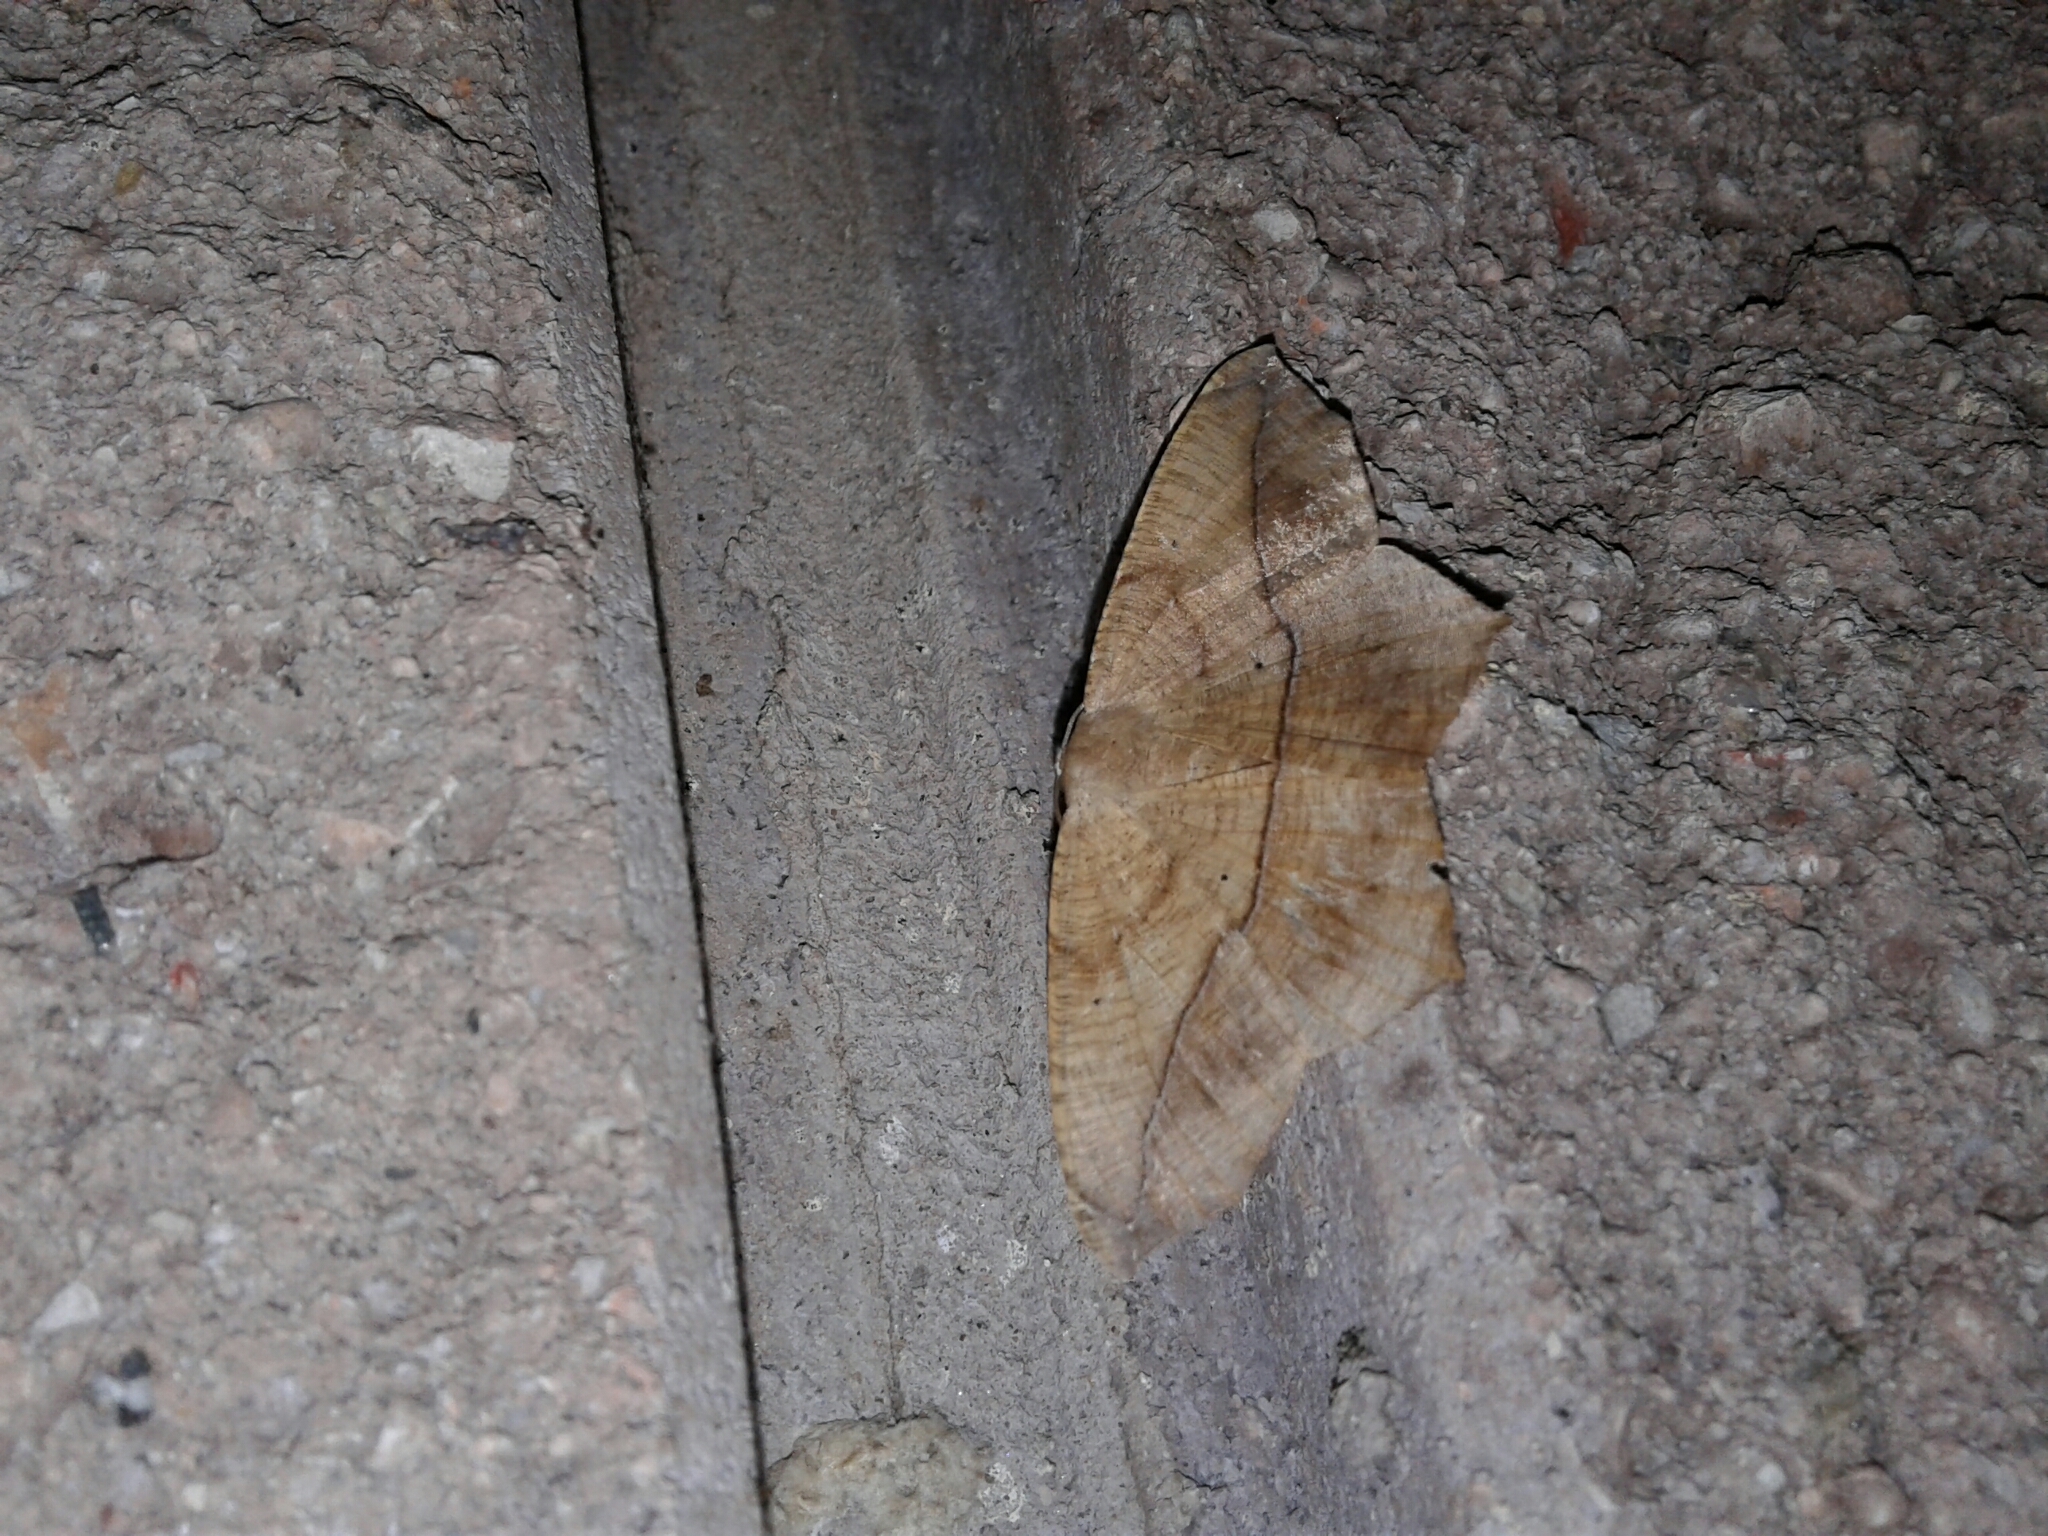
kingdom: Animalia
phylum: Arthropoda
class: Insecta
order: Lepidoptera
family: Geometridae
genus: Prochoerodes
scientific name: Prochoerodes lineola
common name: Large maple spanworm
